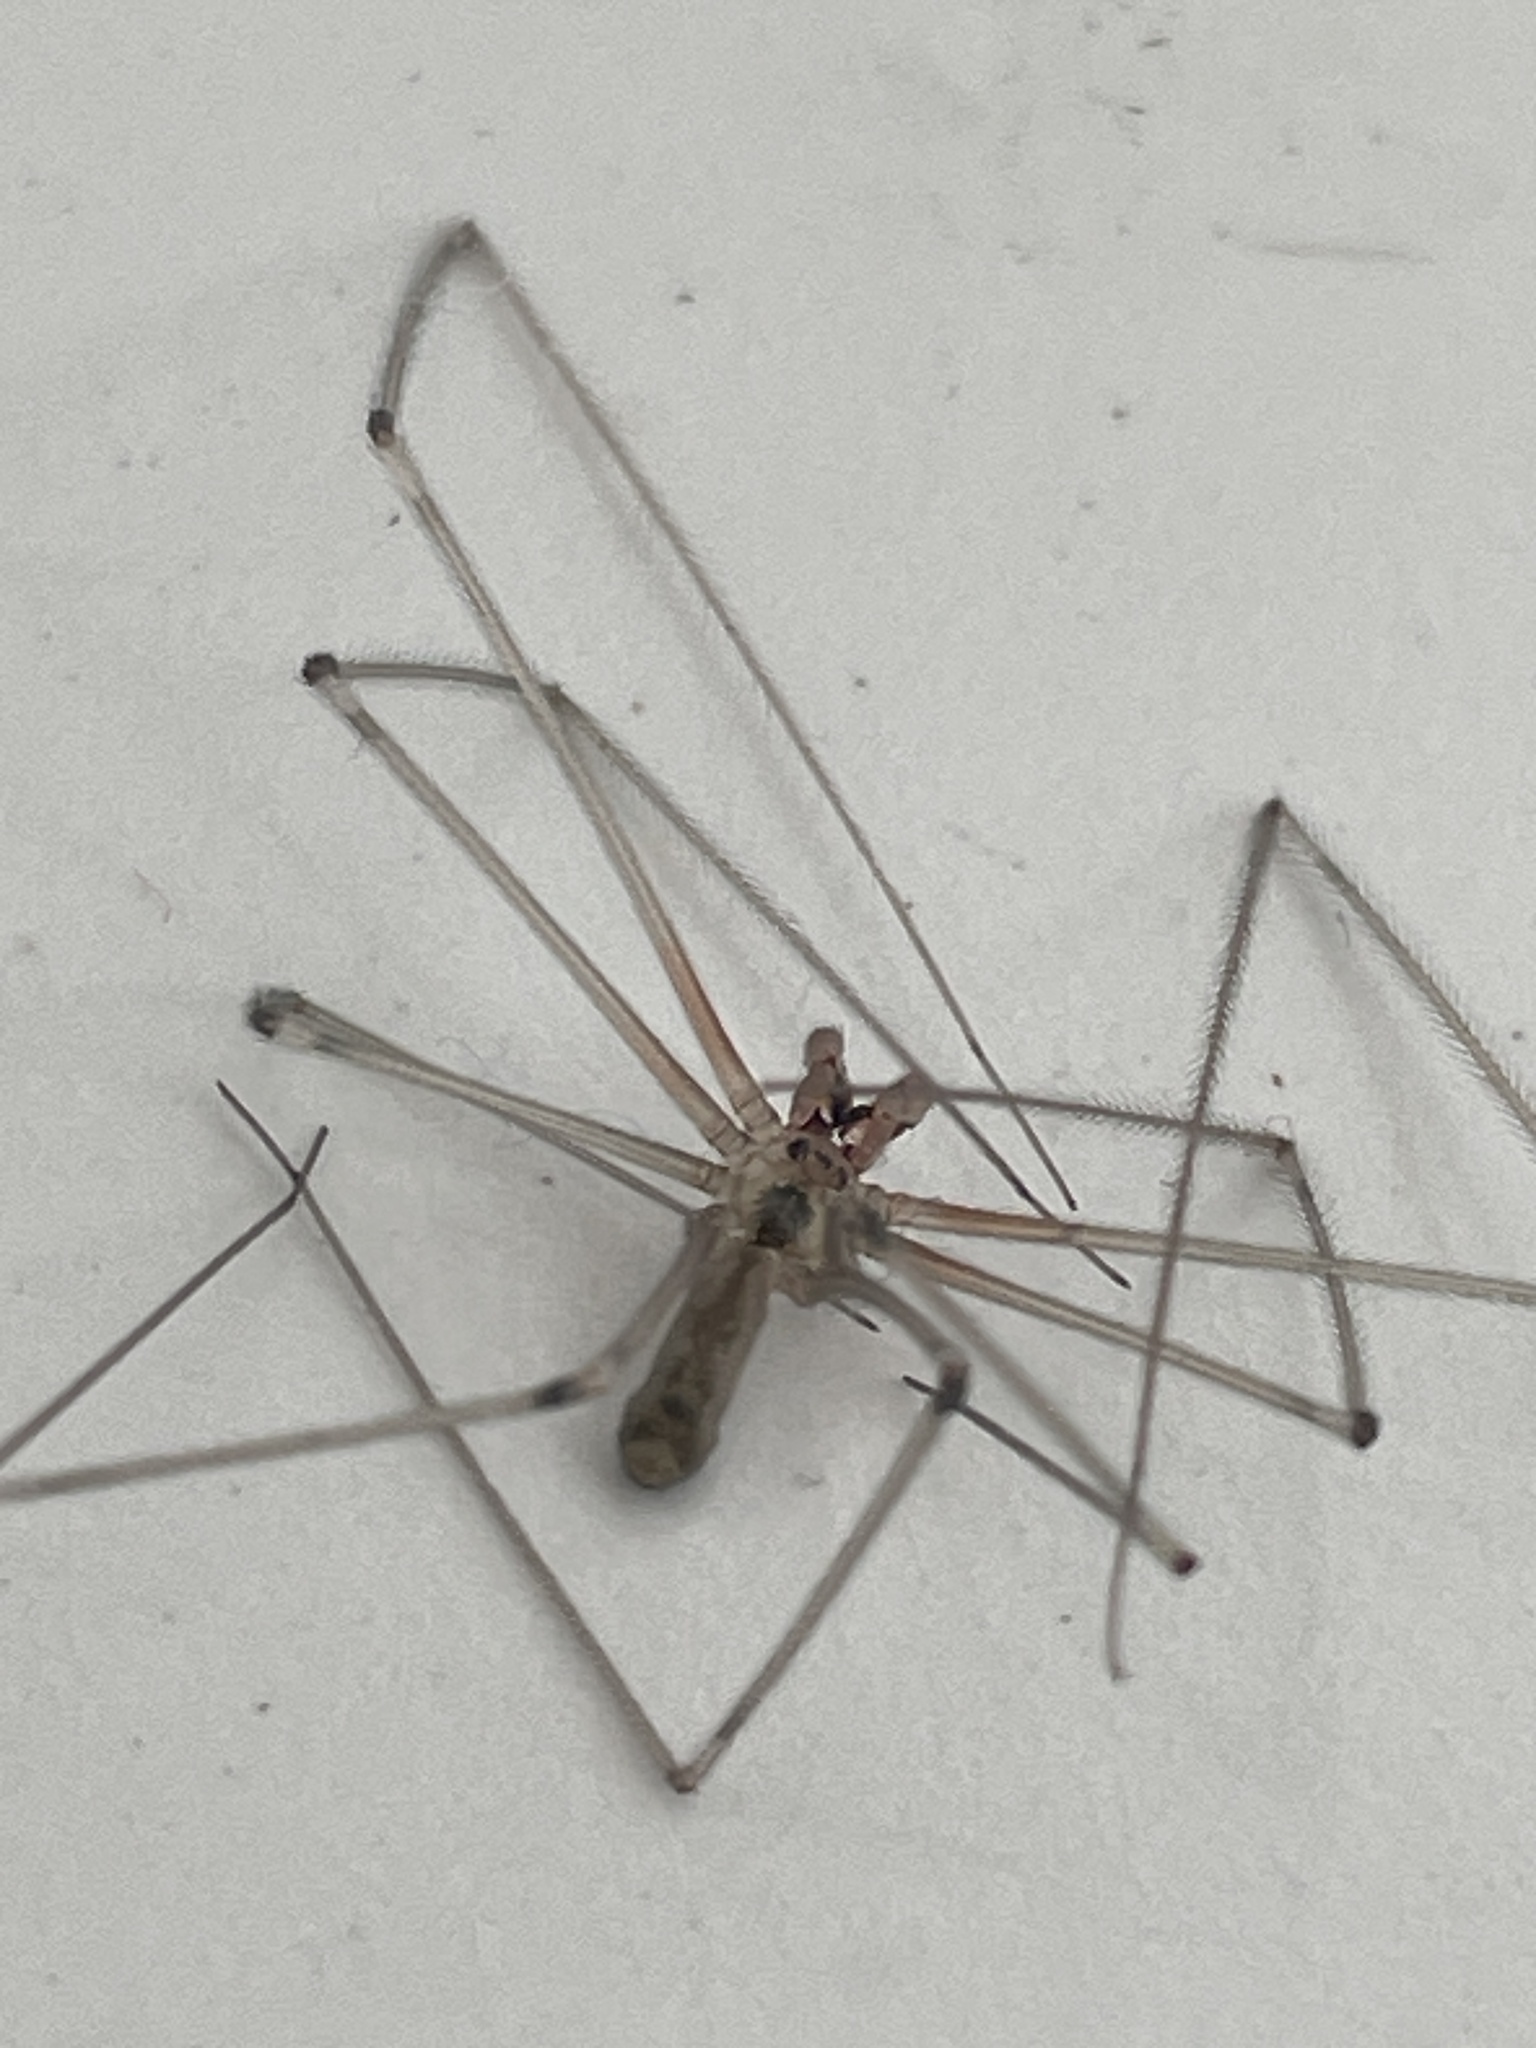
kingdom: Animalia
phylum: Arthropoda
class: Arachnida
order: Araneae
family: Pholcidae
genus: Pholcus
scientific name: Pholcus phalangioides
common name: Longbodied cellar spider
